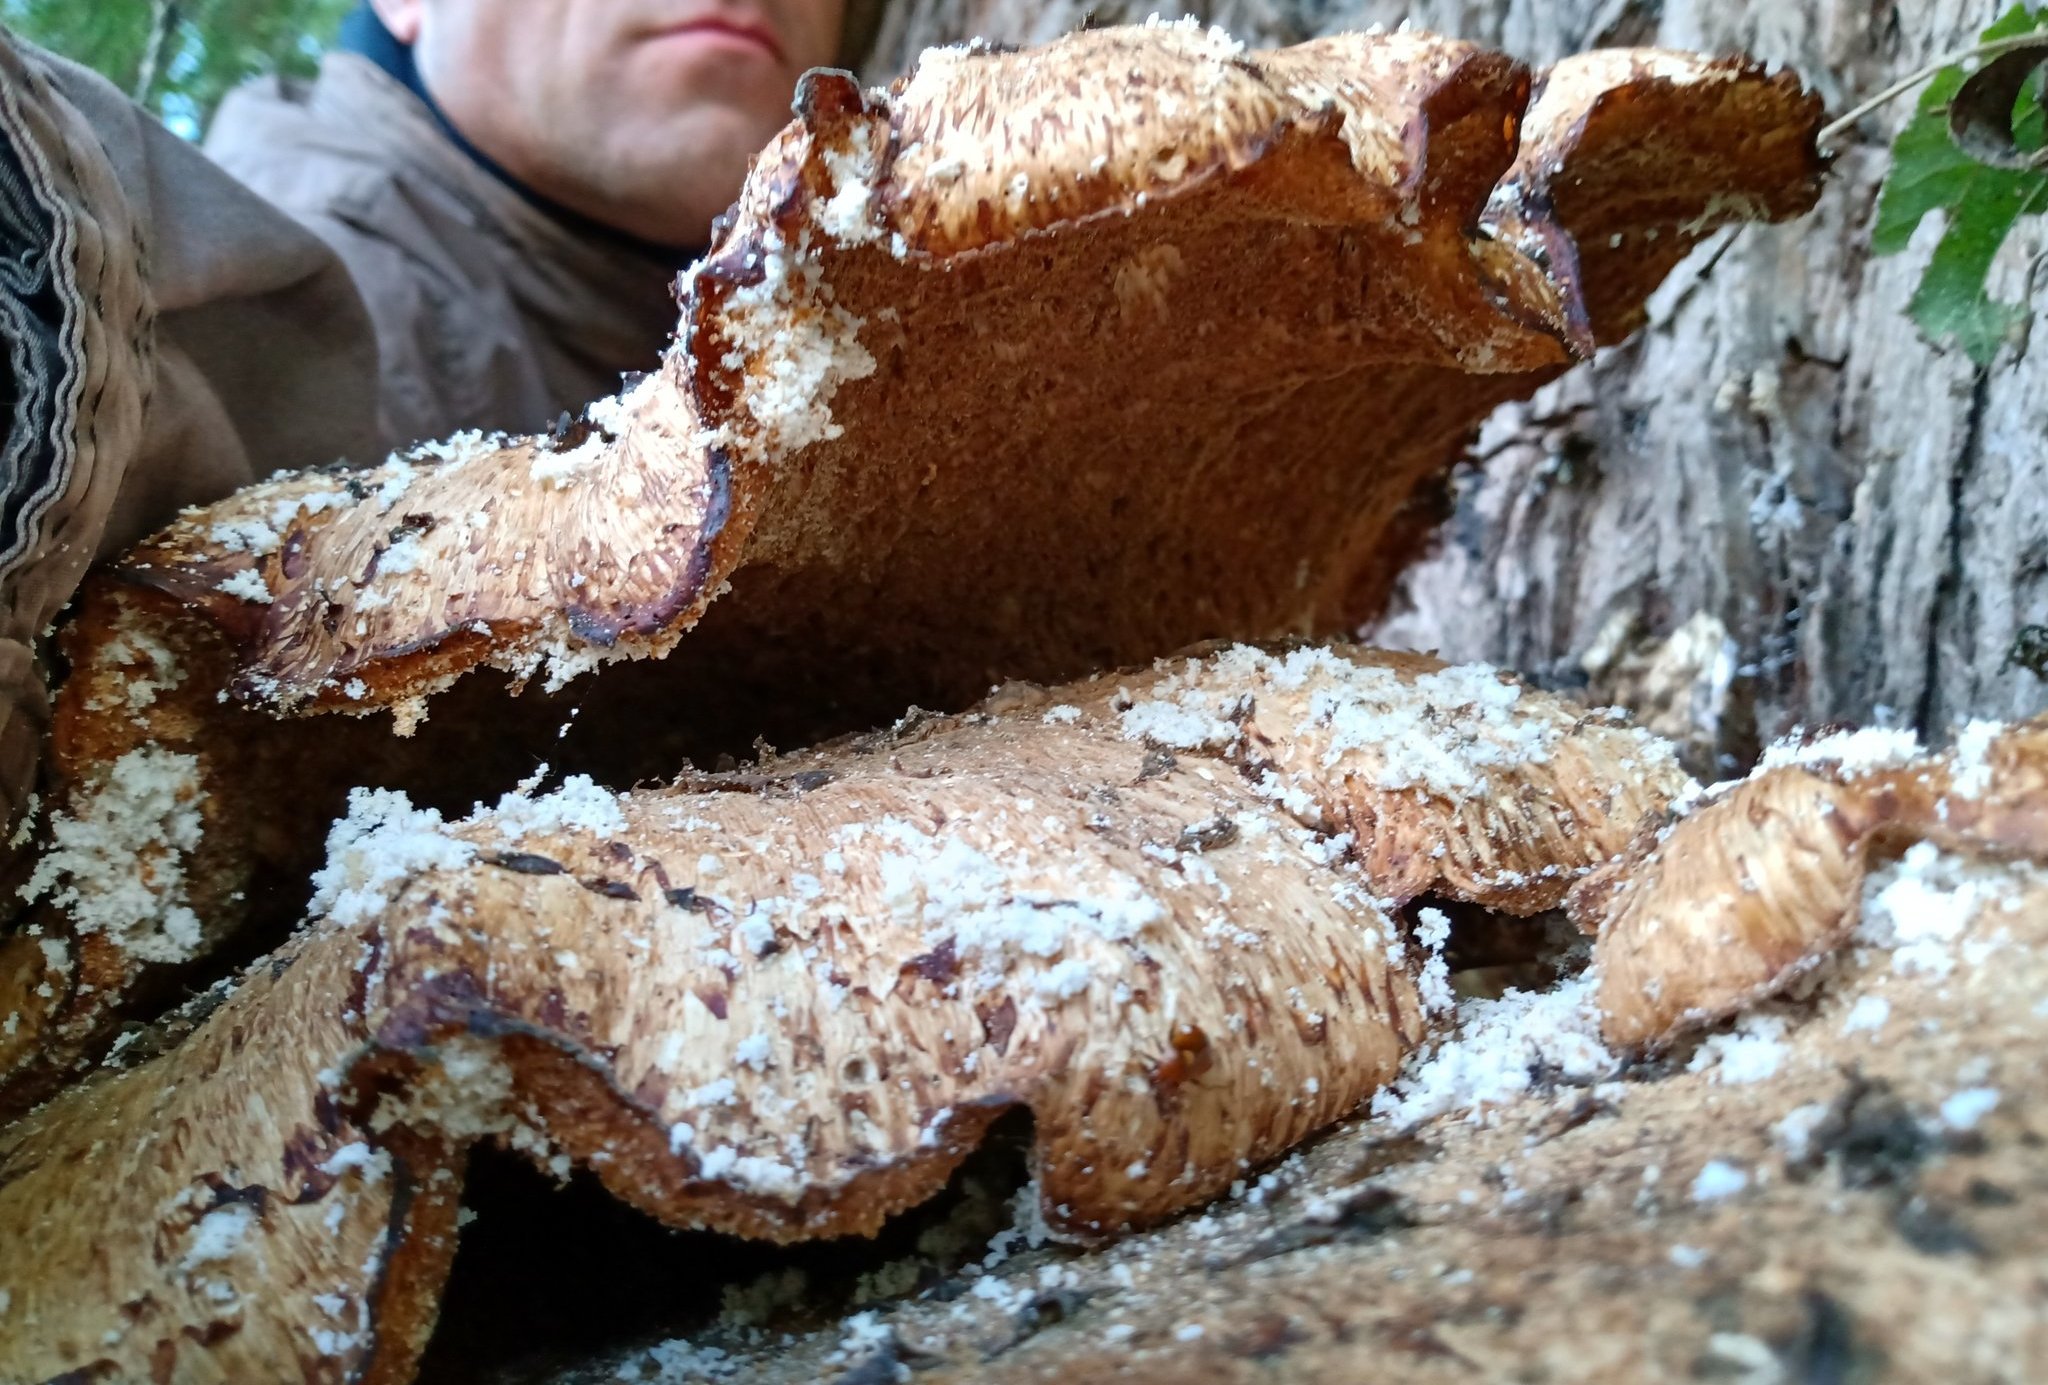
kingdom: Fungi
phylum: Basidiomycota
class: Agaricomycetes
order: Polyporales
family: Polyporaceae
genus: Cerioporus
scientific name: Cerioporus squamosus
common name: Dryad's saddle
